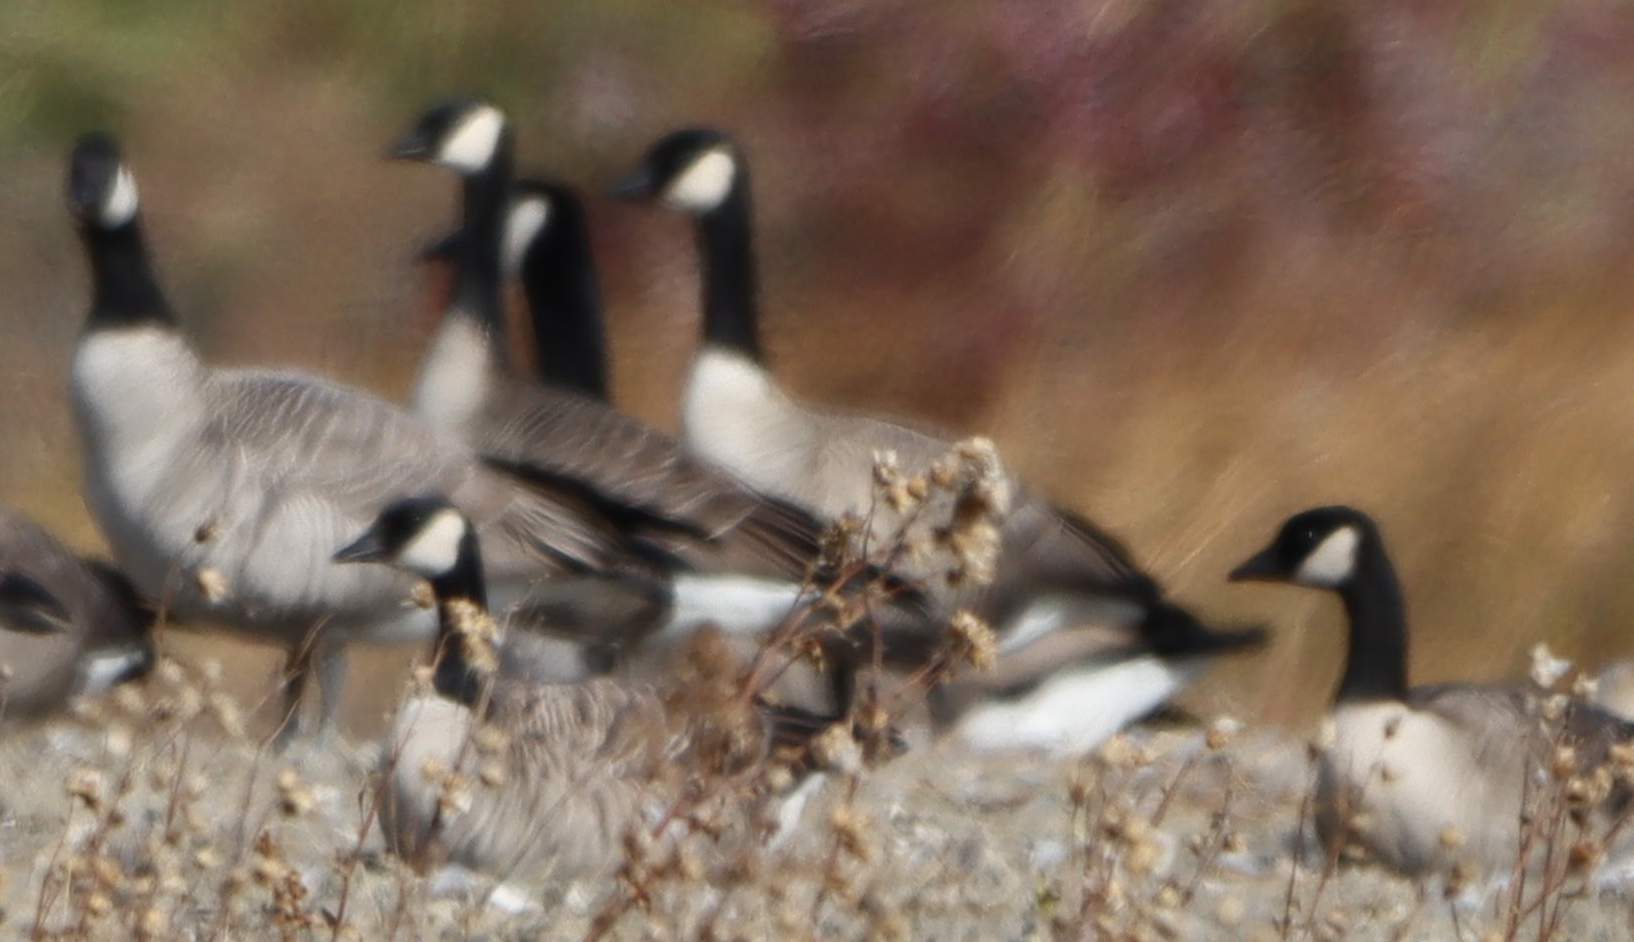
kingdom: Animalia
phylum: Chordata
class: Aves
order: Anseriformes
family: Anatidae
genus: Branta
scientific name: Branta canadensis
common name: Canada goose
